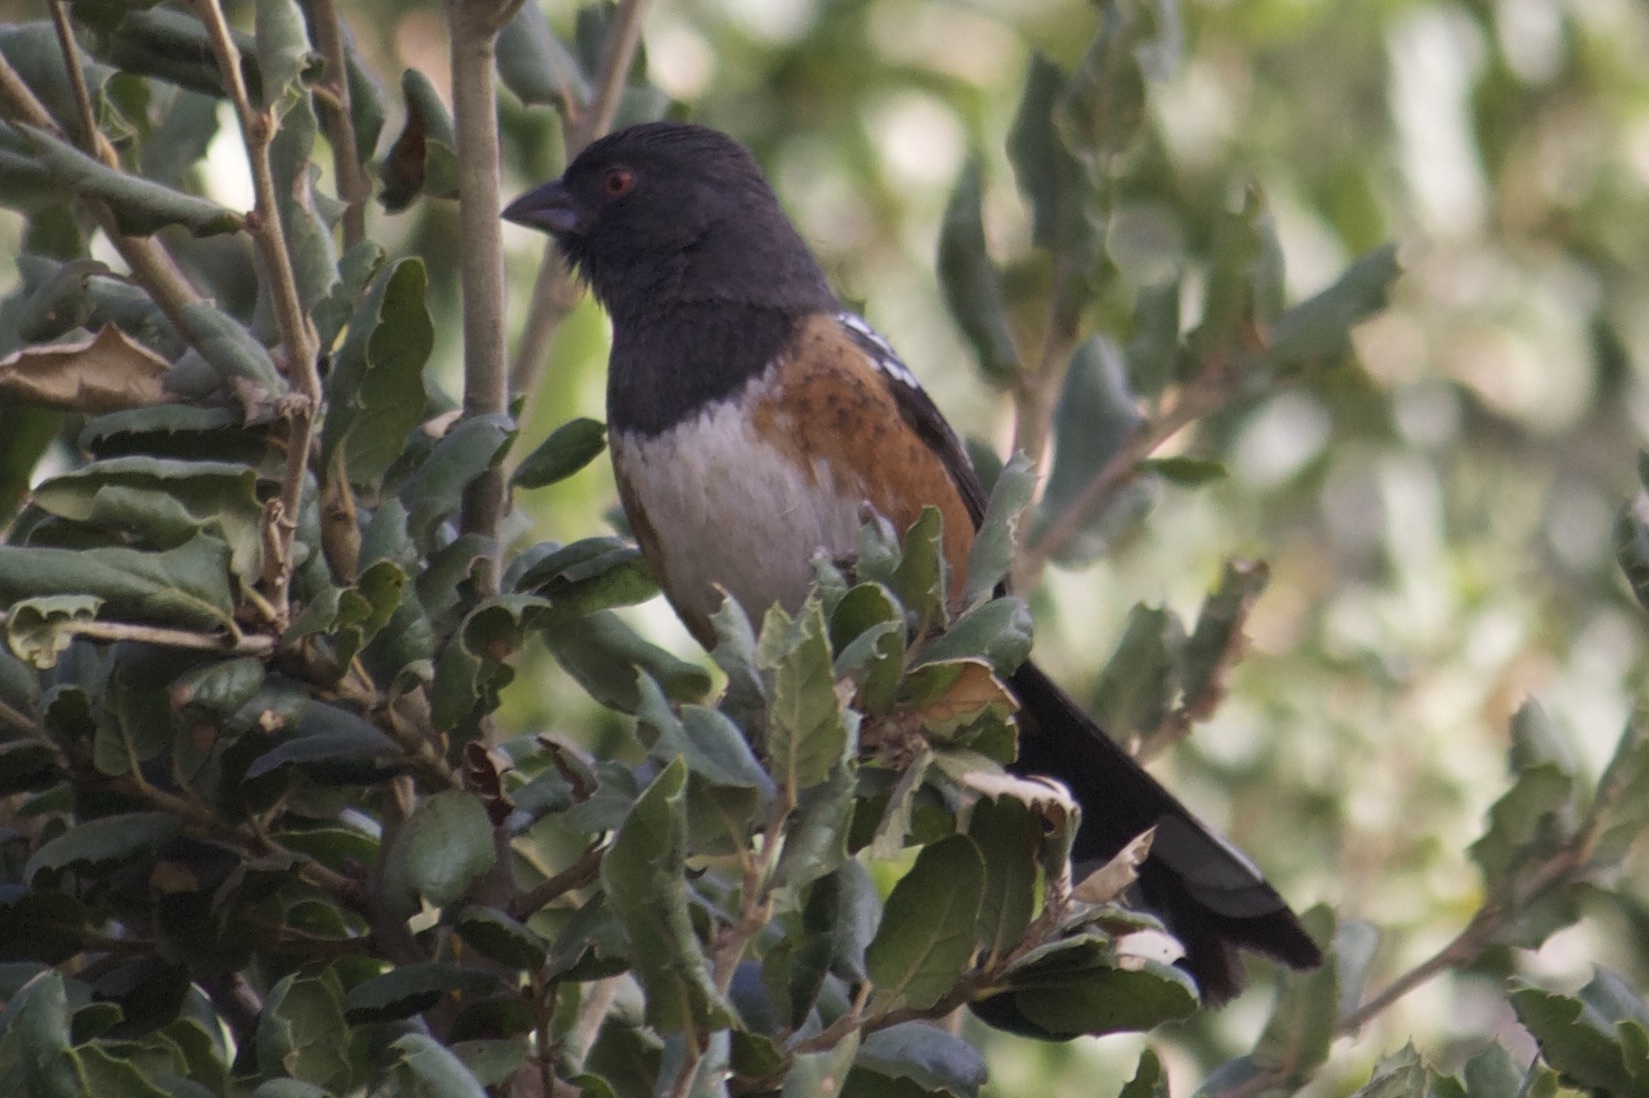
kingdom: Animalia
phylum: Chordata
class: Aves
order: Passeriformes
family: Passerellidae
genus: Pipilo
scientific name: Pipilo maculatus
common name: Spotted towhee
